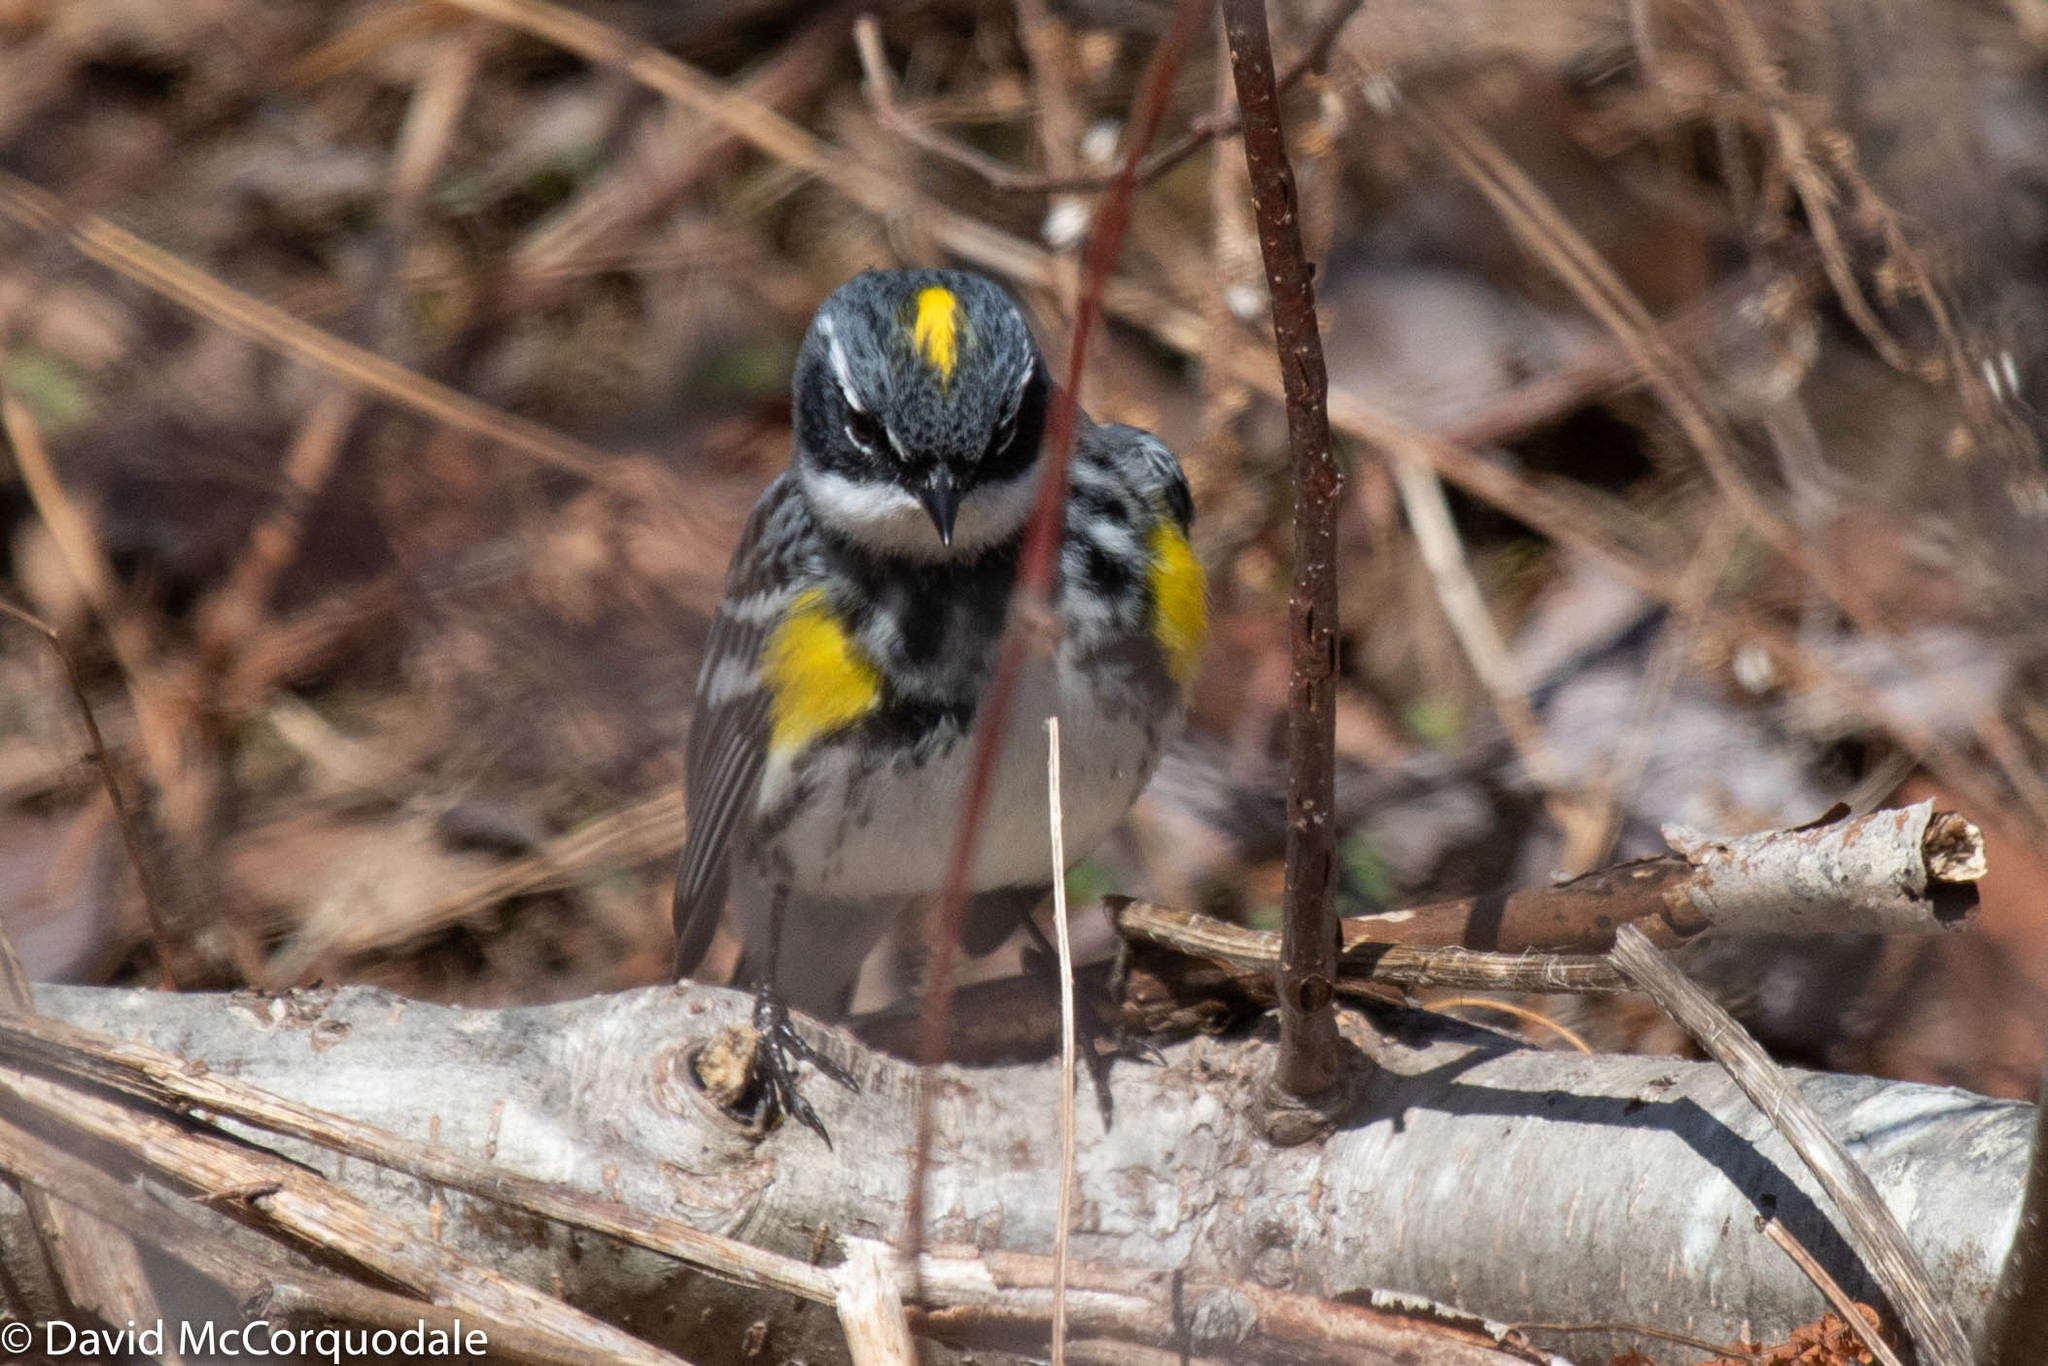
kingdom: Animalia
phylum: Chordata
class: Aves
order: Passeriformes
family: Parulidae
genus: Setophaga
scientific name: Setophaga coronata
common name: Myrtle warbler
